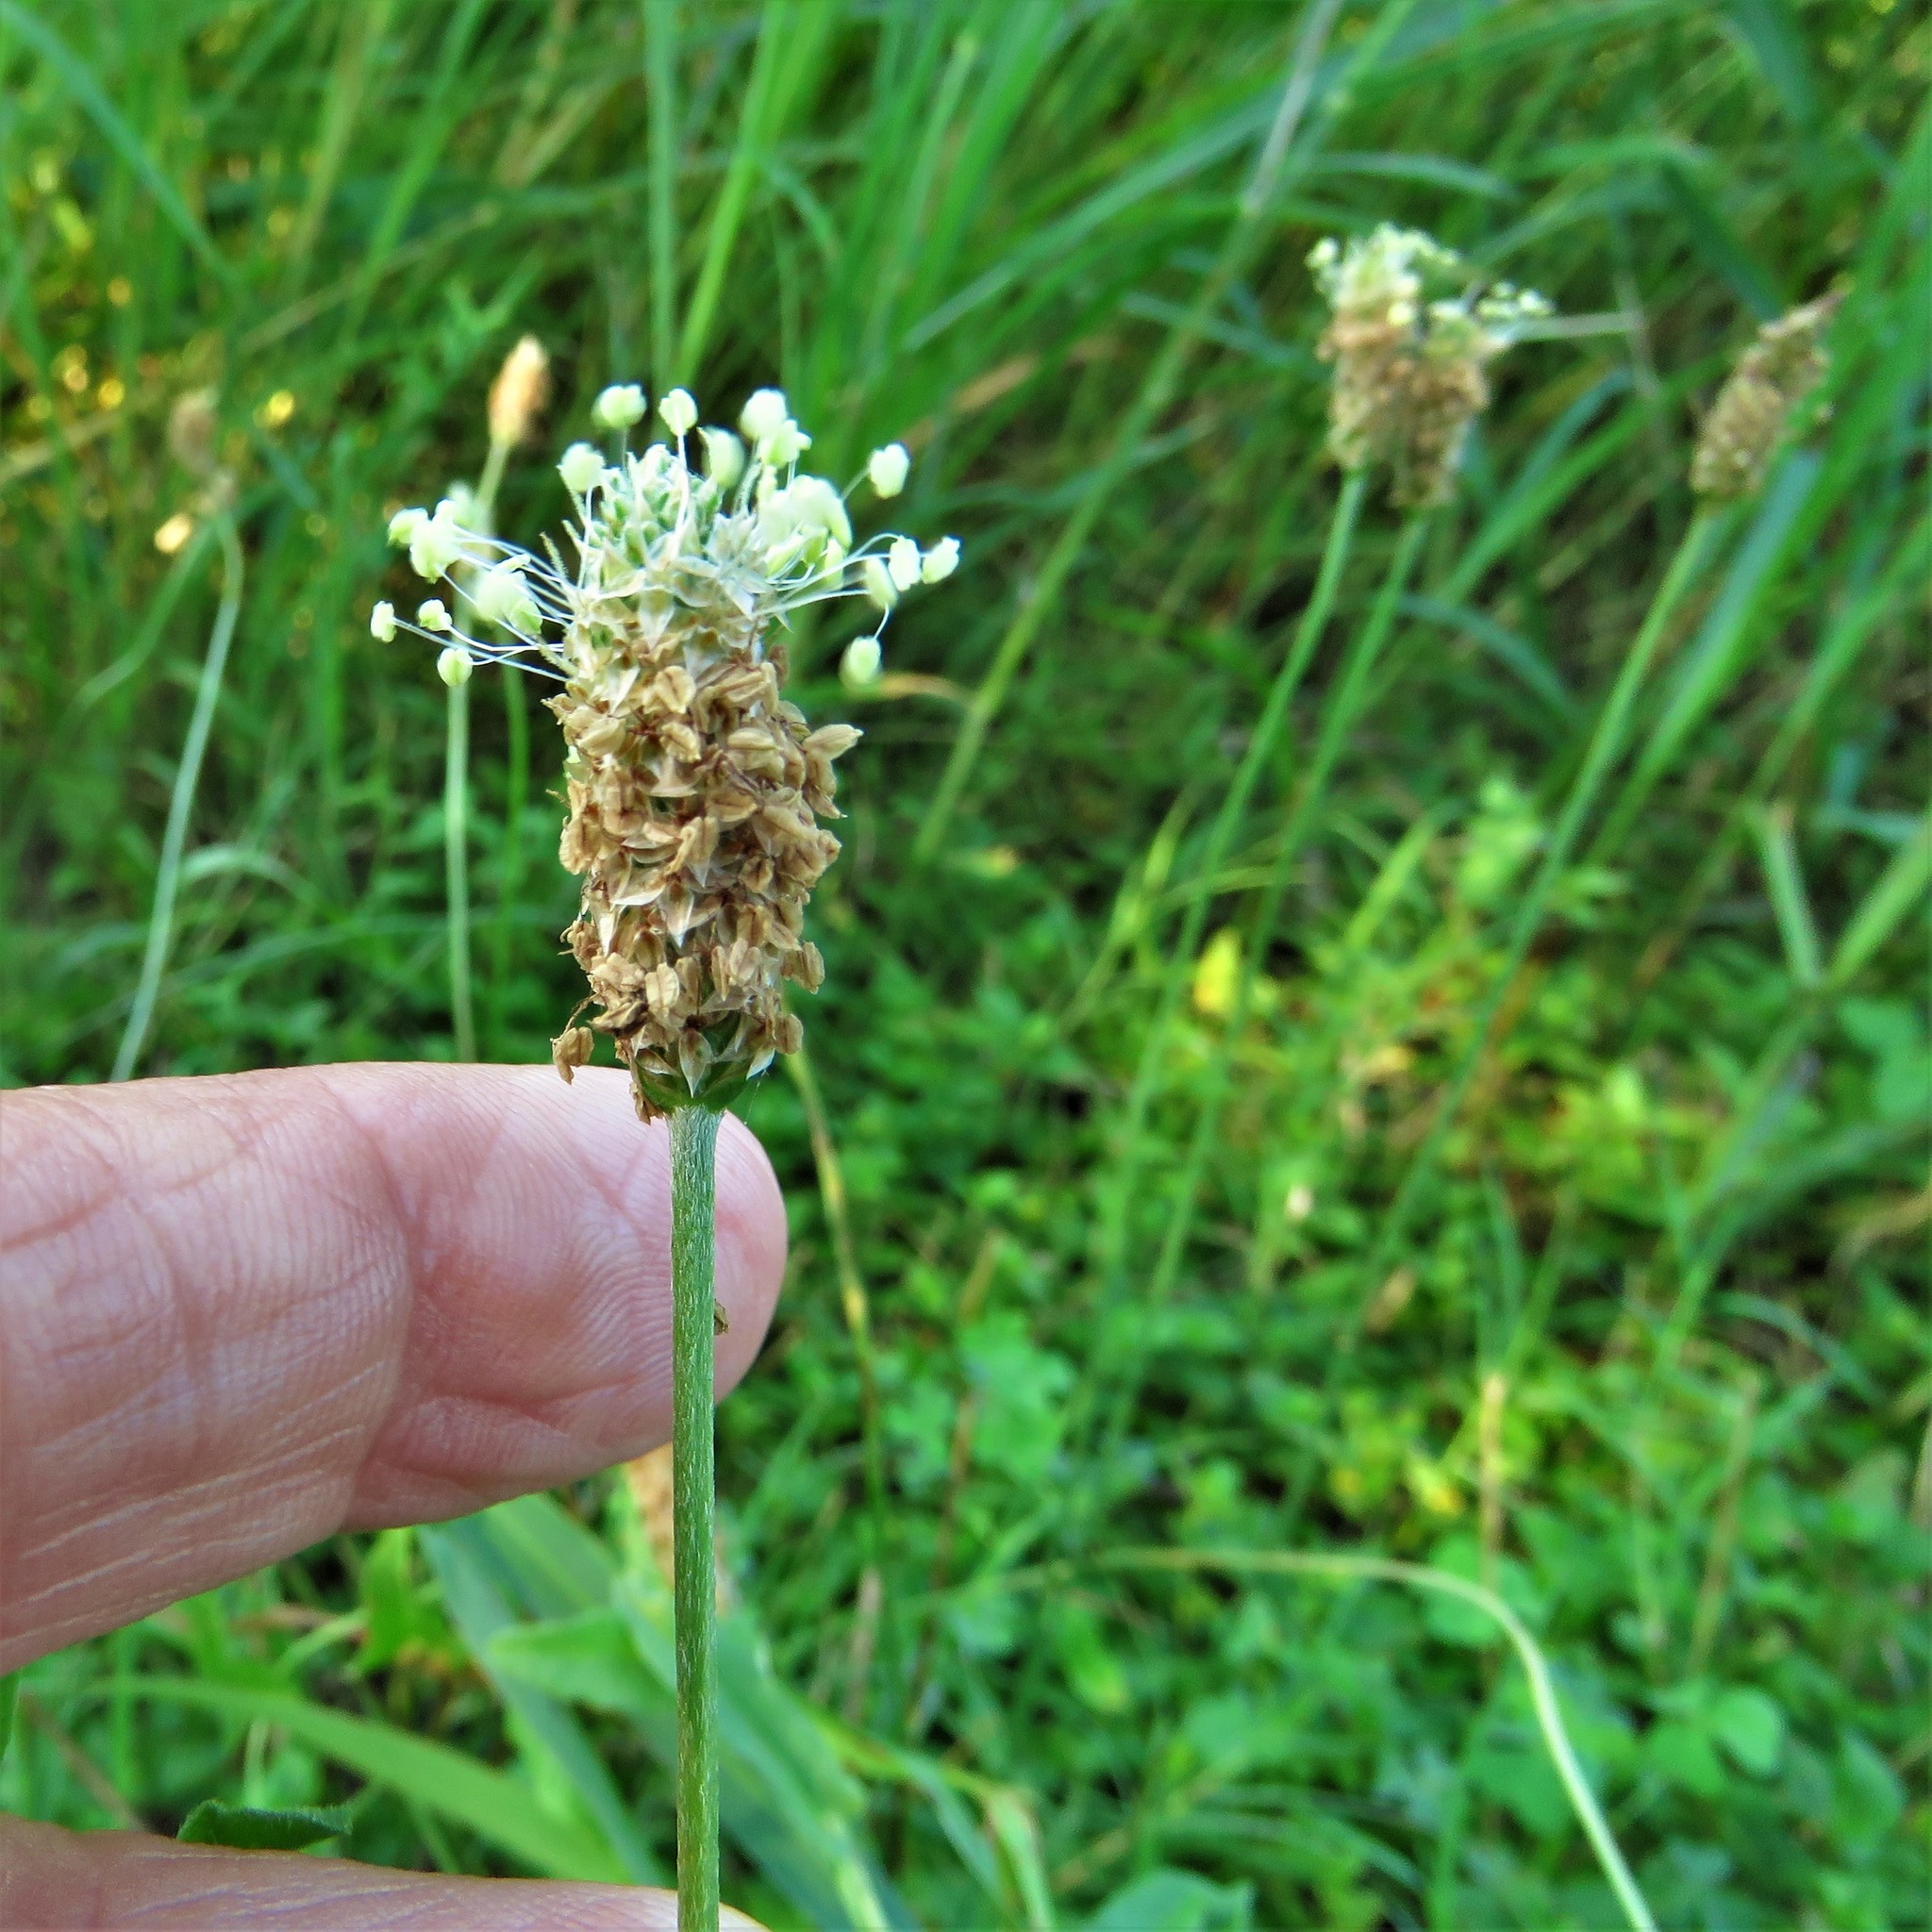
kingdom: Plantae
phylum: Tracheophyta
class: Magnoliopsida
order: Lamiales
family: Plantaginaceae
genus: Plantago
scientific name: Plantago lanceolata
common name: Ribwort plantain
